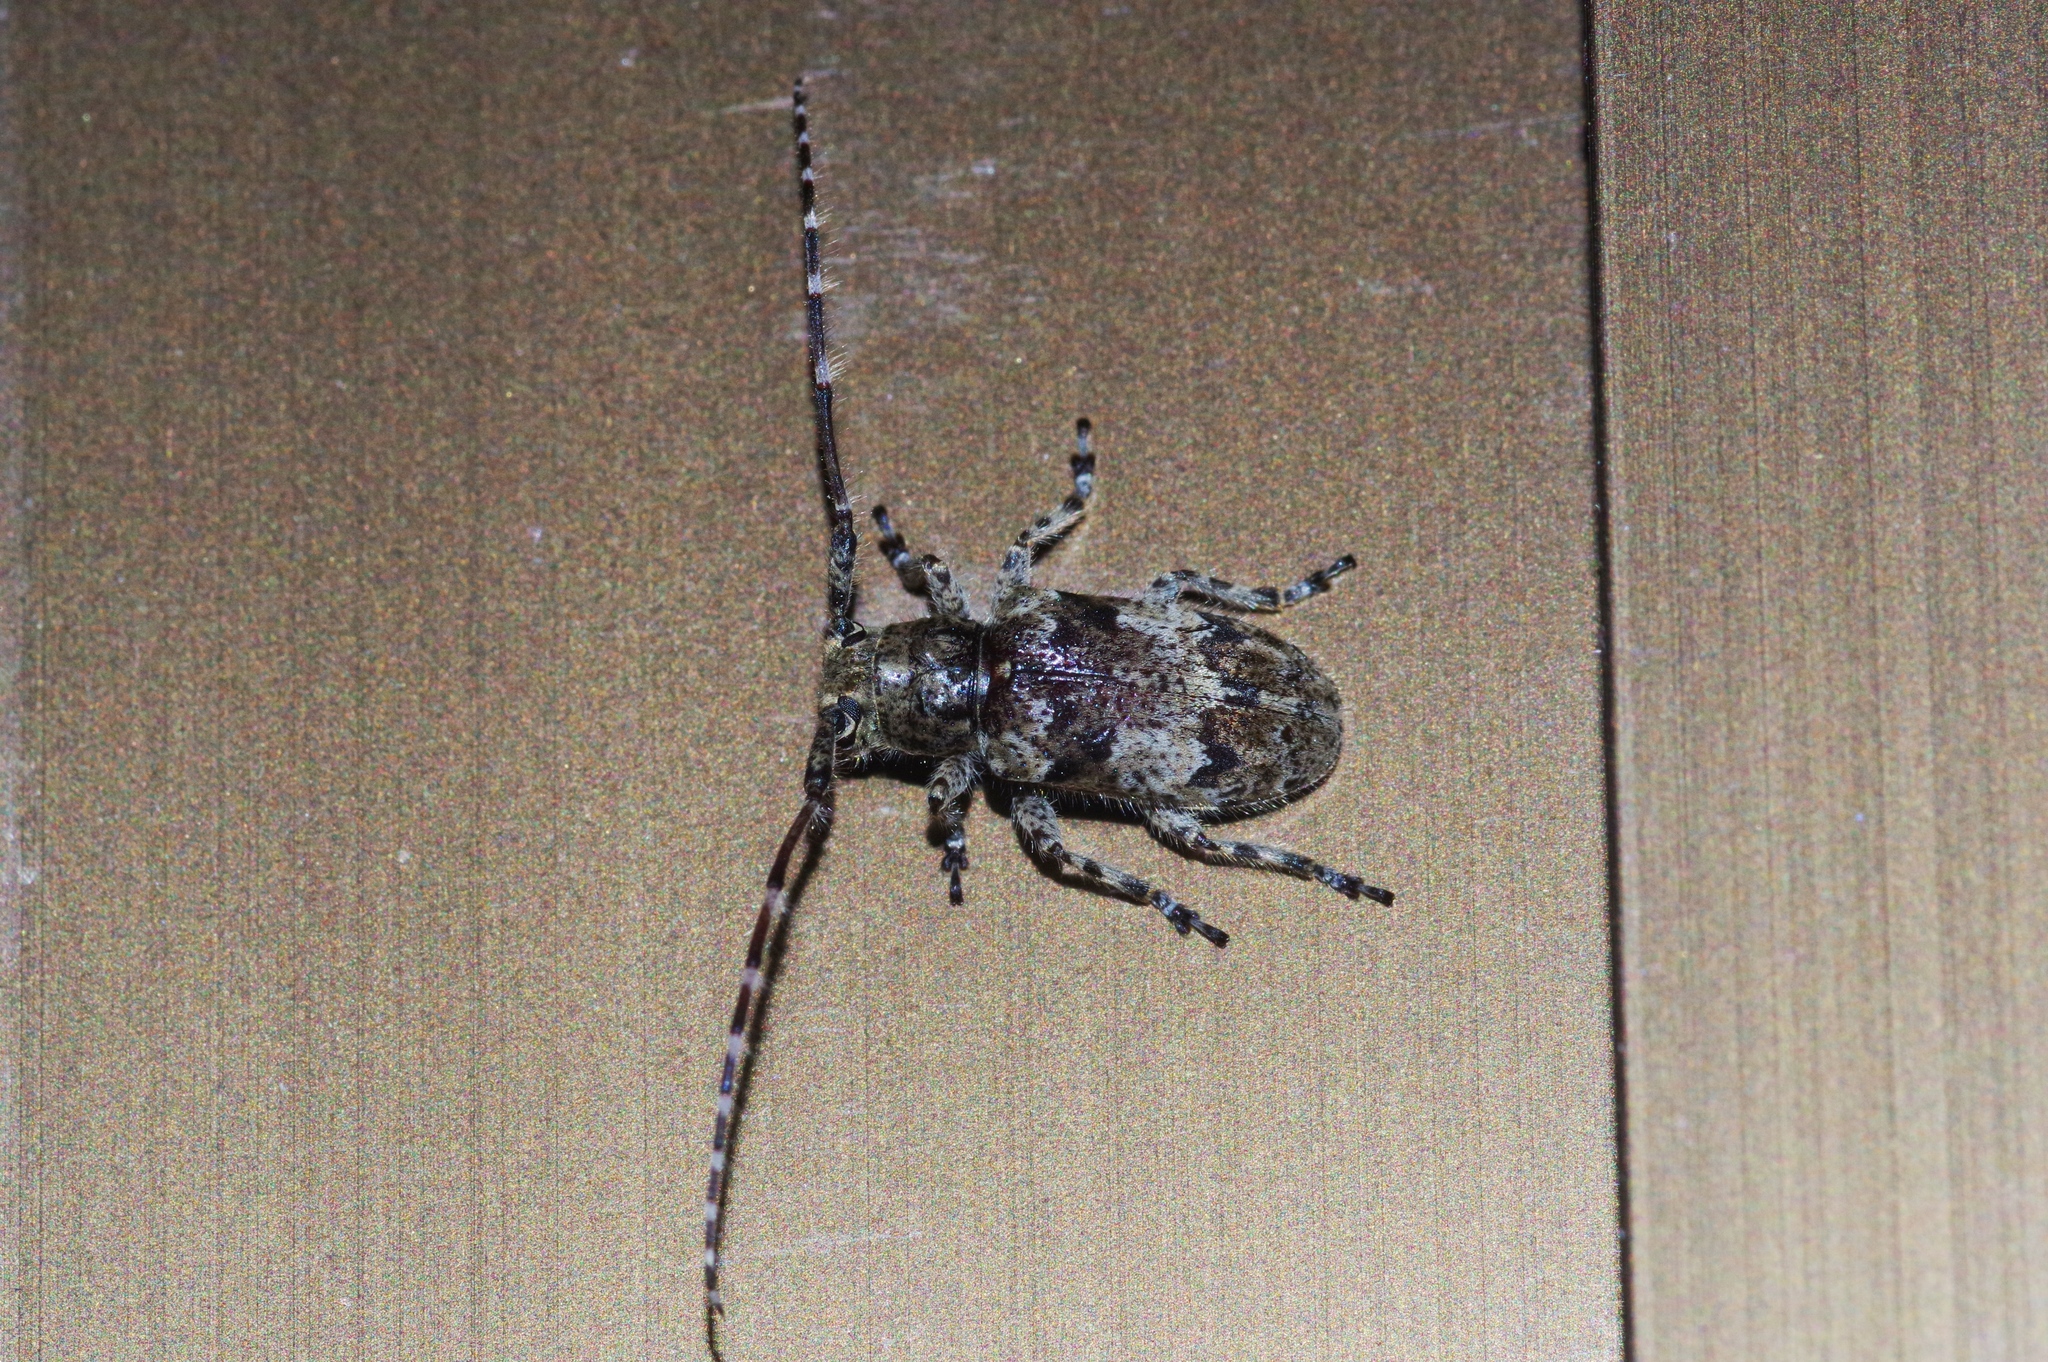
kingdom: Animalia
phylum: Arthropoda
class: Insecta
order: Coleoptera
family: Cerambycidae
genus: Mesosa
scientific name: Mesosa pictipes
